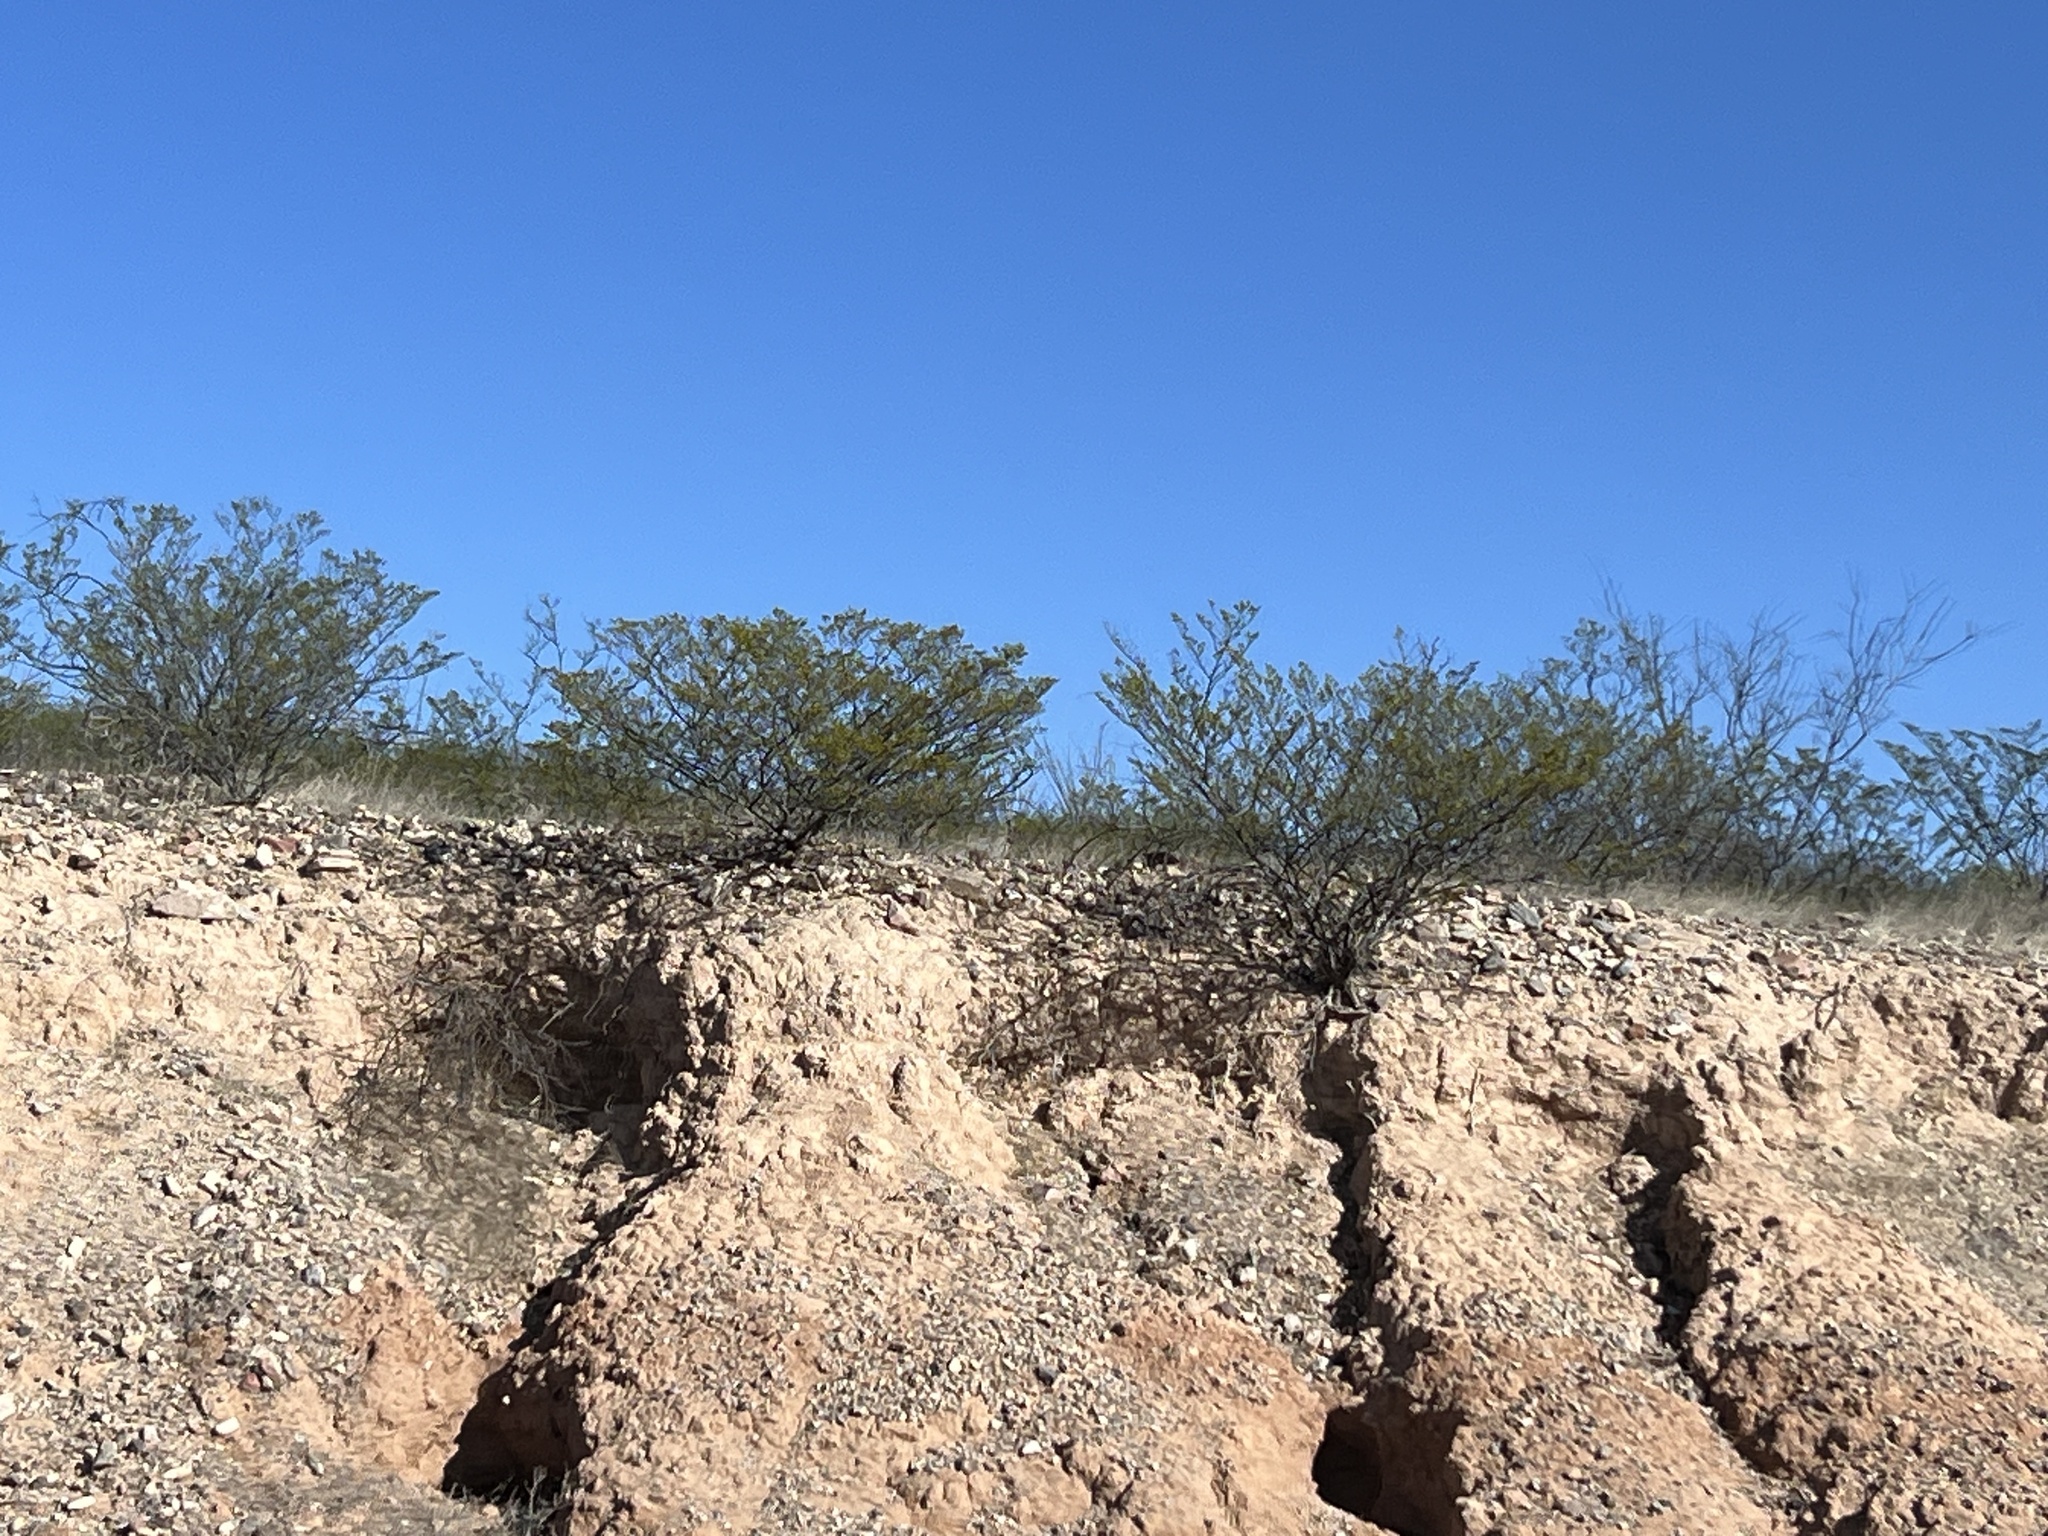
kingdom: Plantae
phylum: Tracheophyta
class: Magnoliopsida
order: Zygophyllales
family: Zygophyllaceae
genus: Larrea
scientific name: Larrea tridentata
